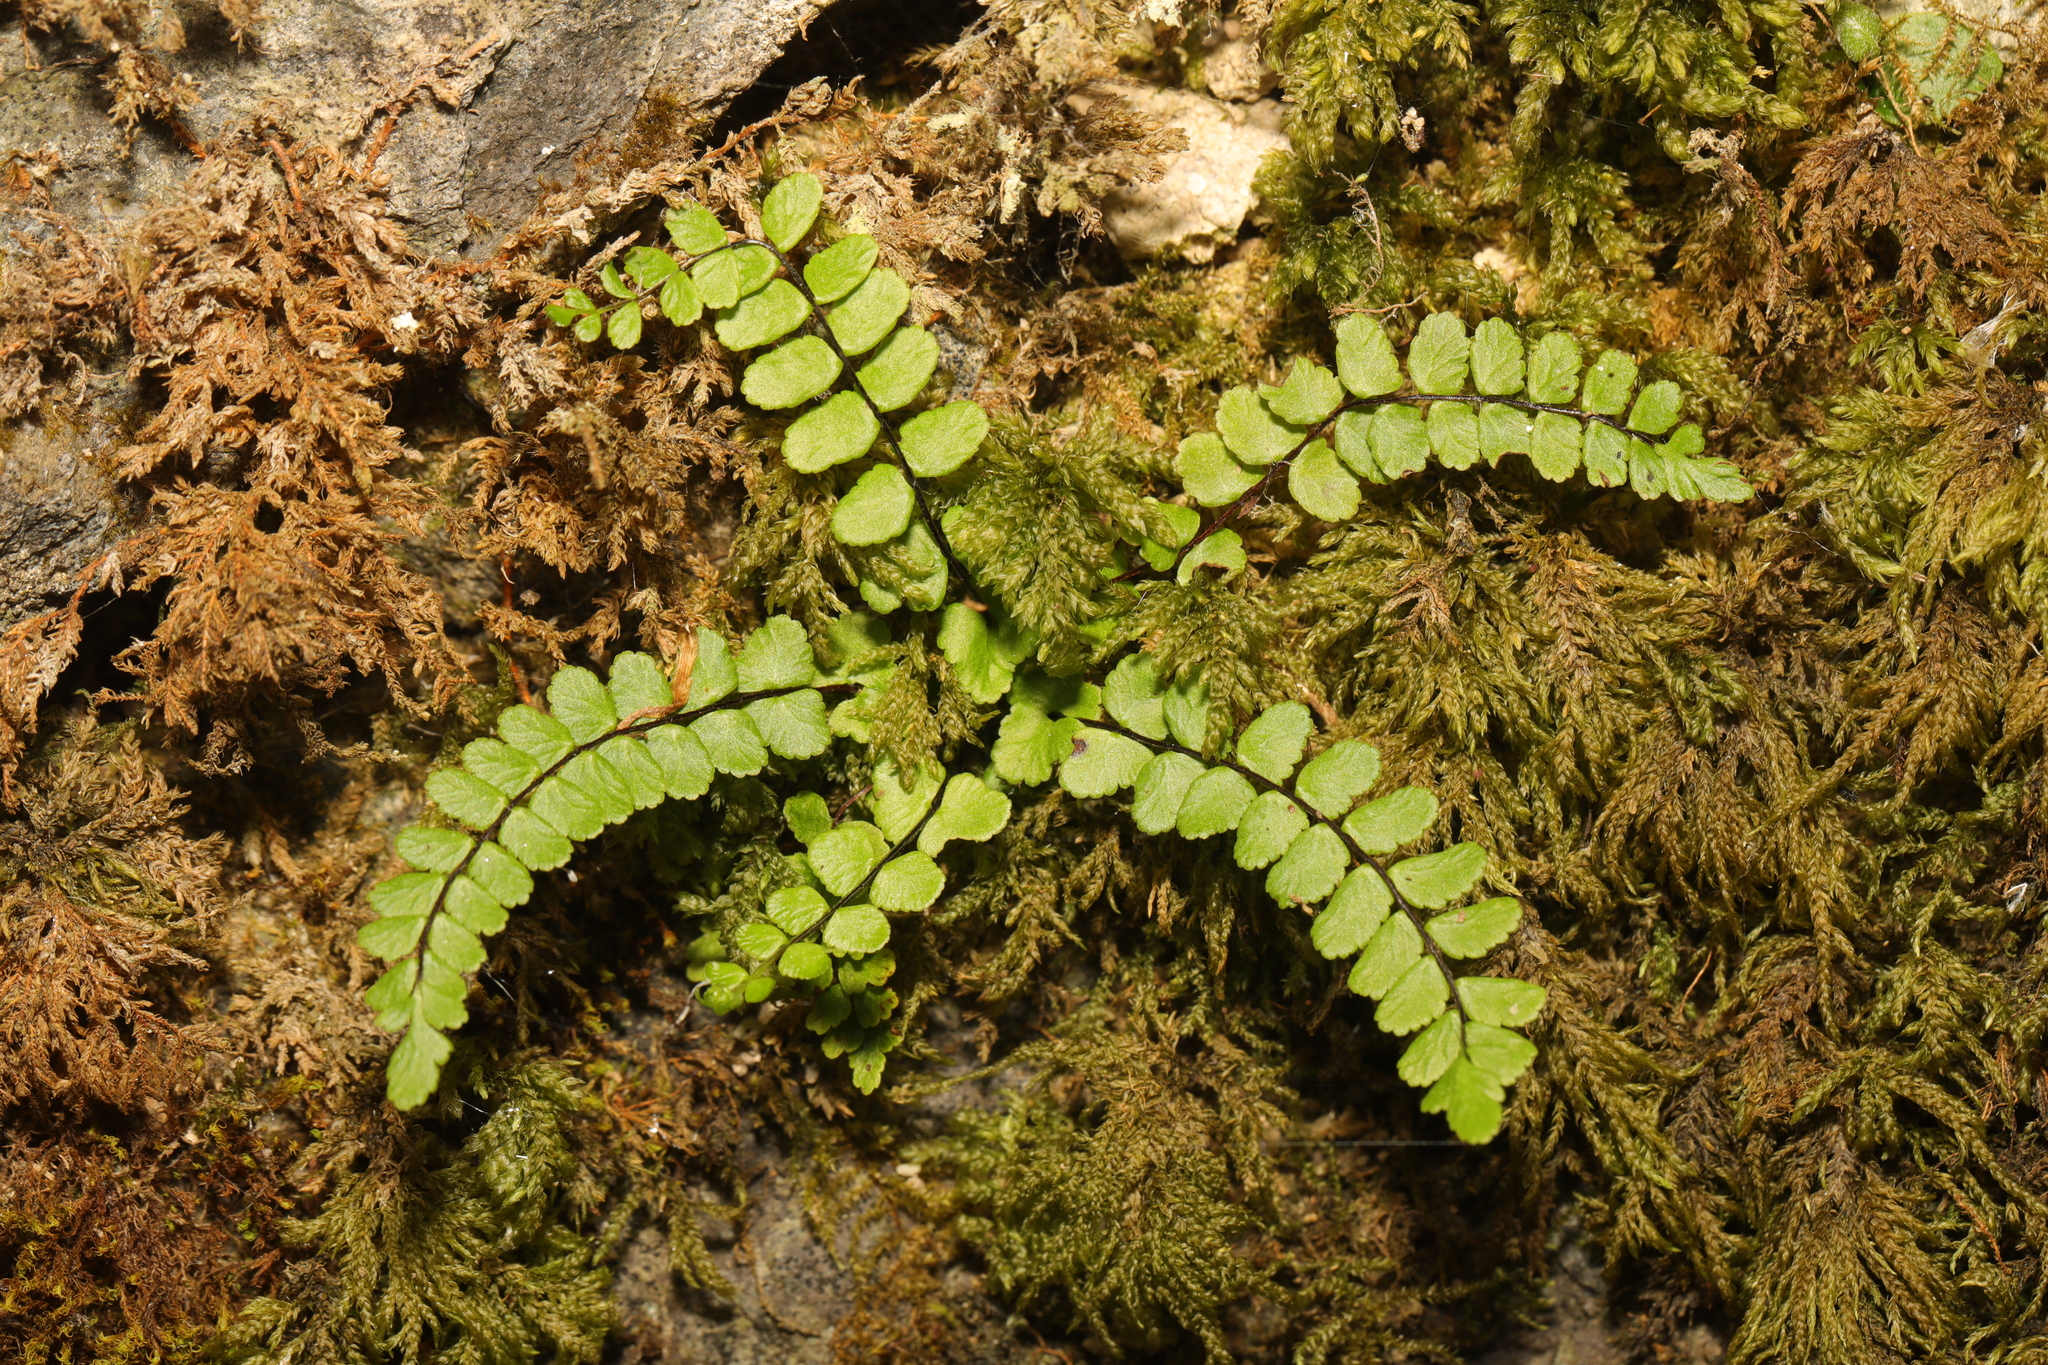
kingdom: Plantae
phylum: Tracheophyta
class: Polypodiopsida
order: Polypodiales
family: Aspleniaceae
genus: Asplenium
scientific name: Asplenium trichomanes
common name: Maidenhair spleenwort
